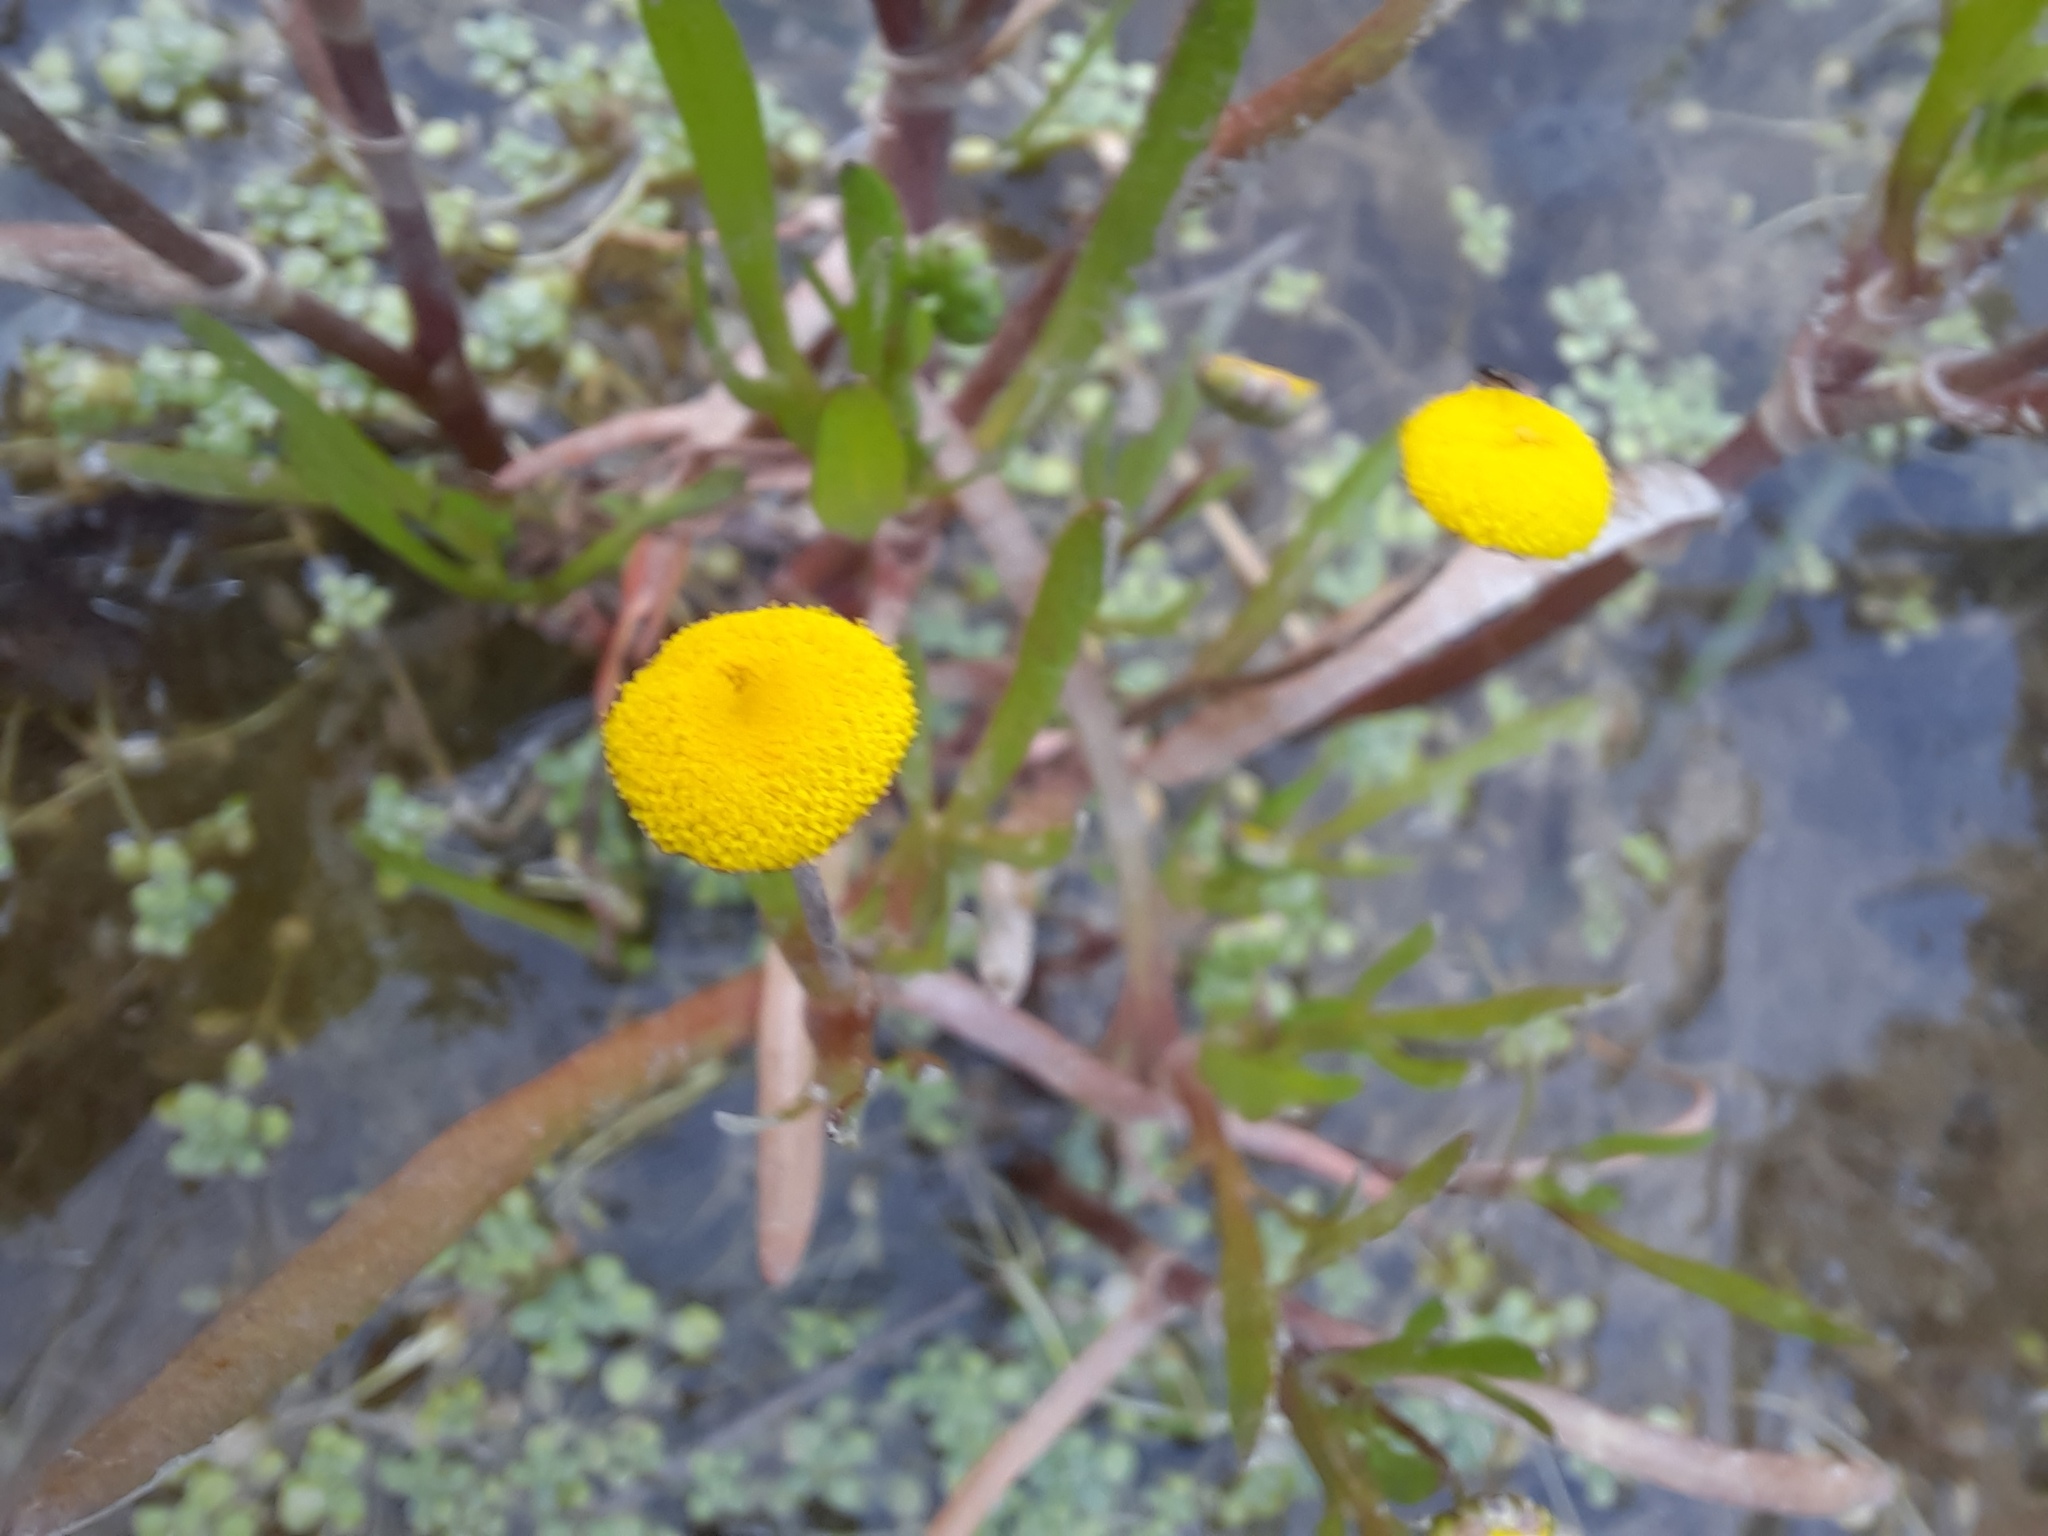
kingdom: Plantae
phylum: Tracheophyta
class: Magnoliopsida
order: Asterales
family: Asteraceae
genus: Cotula
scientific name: Cotula coronopifolia
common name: Buttonweed
